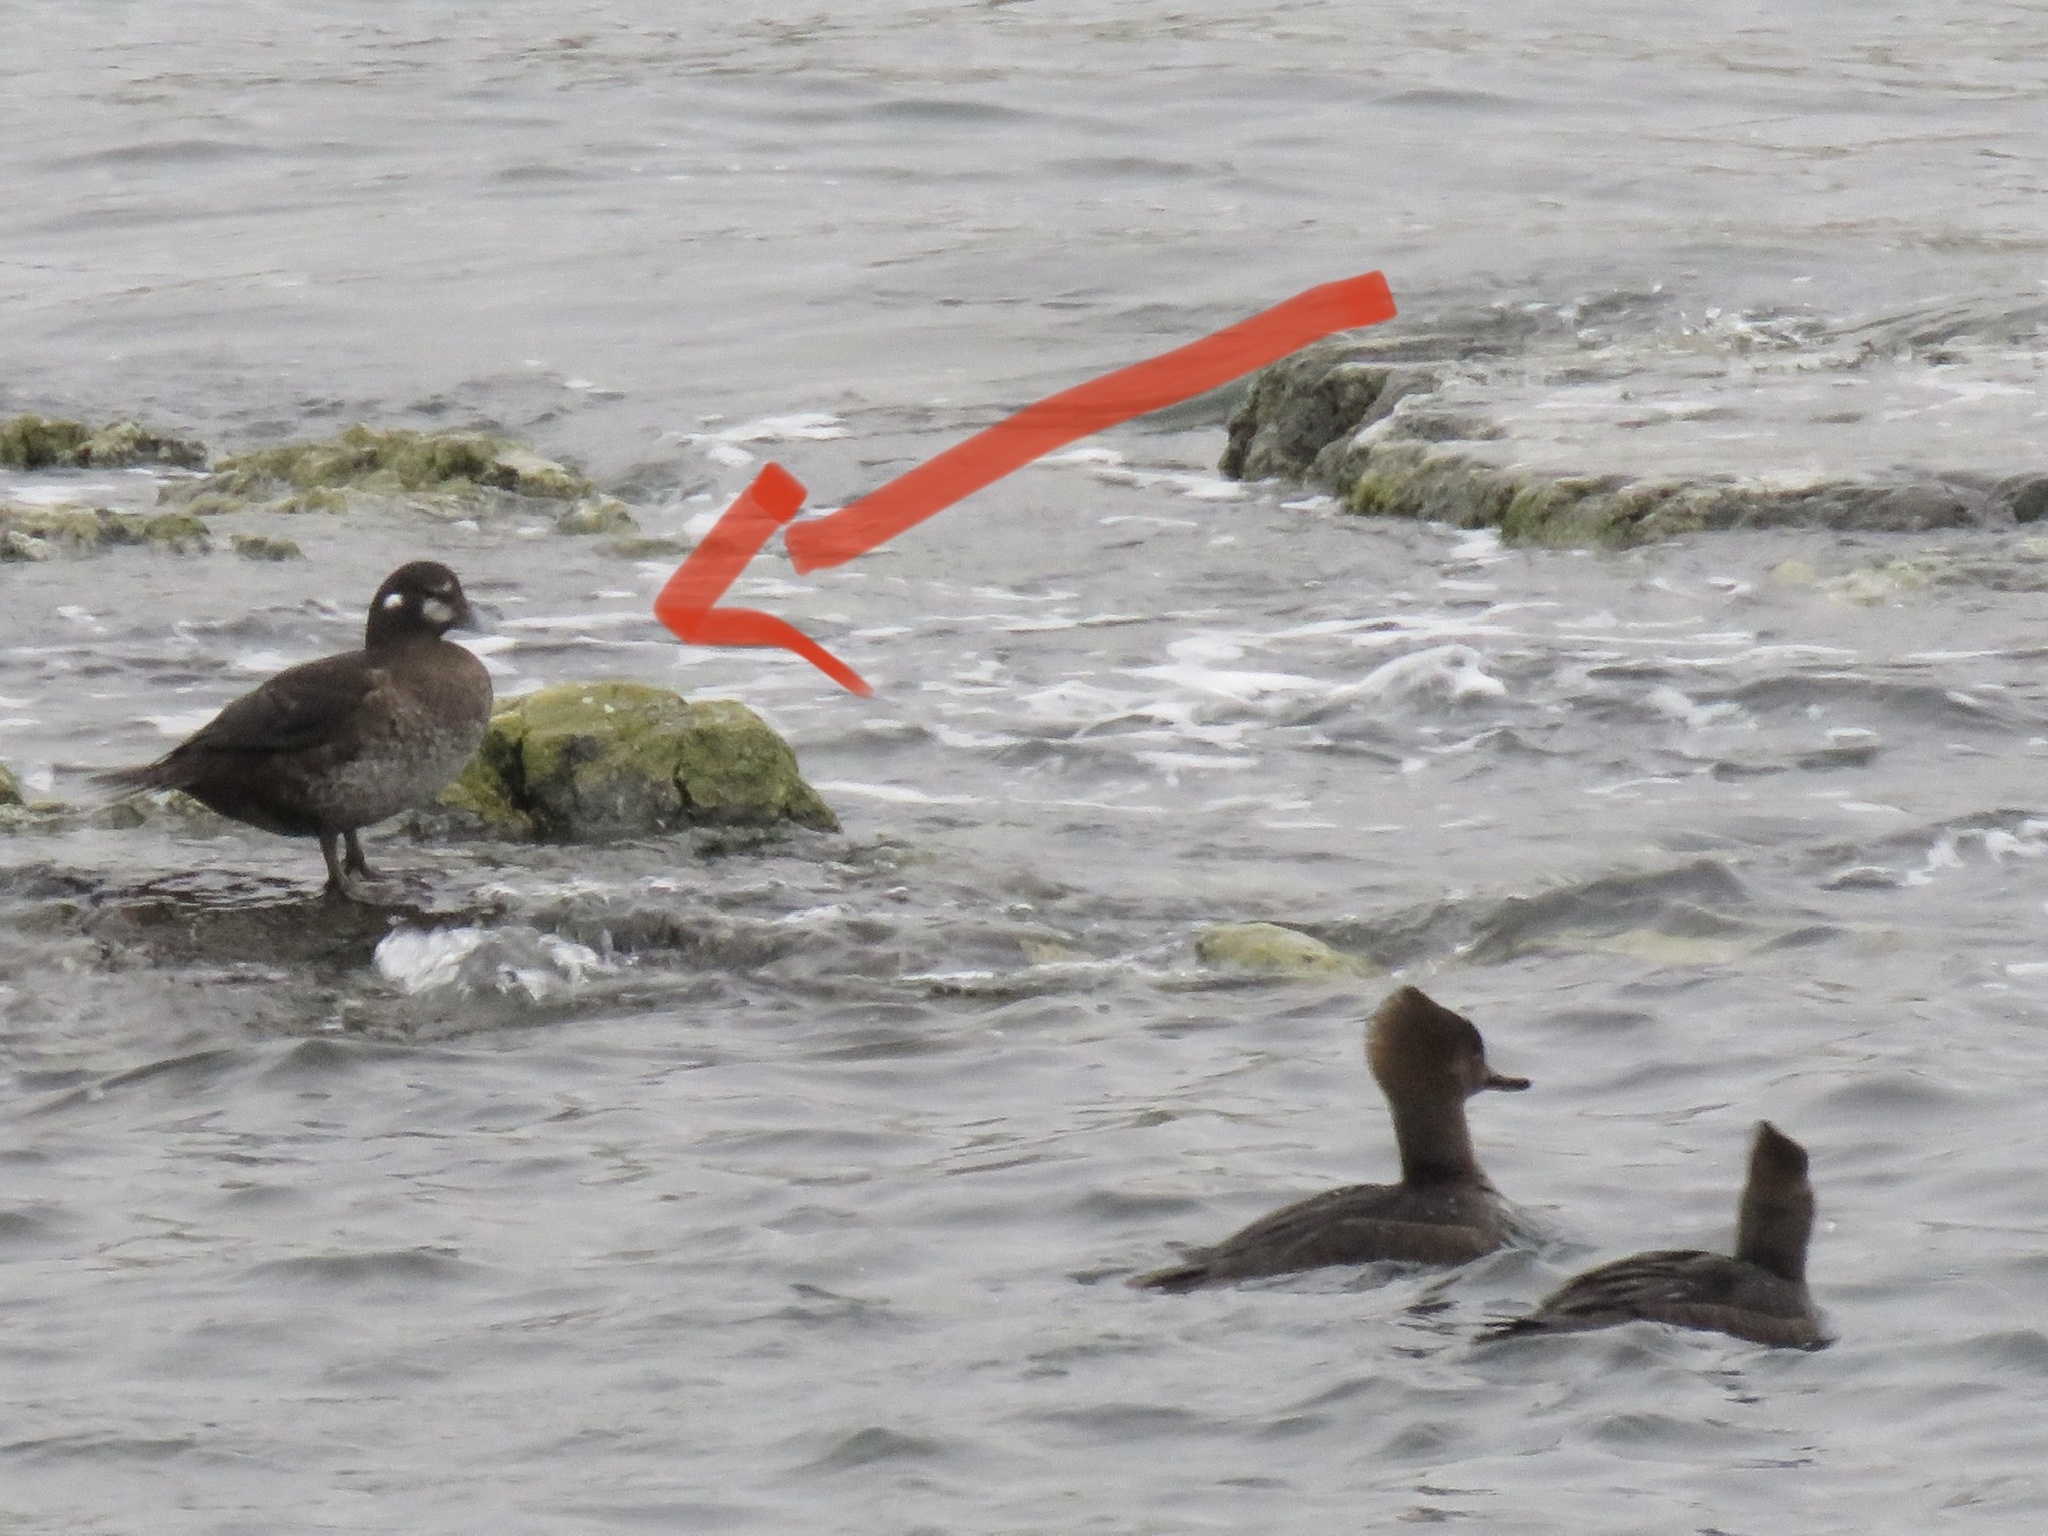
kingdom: Animalia
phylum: Chordata
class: Aves
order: Anseriformes
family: Anatidae
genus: Histrionicus
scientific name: Histrionicus histrionicus
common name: Harlequin duck
